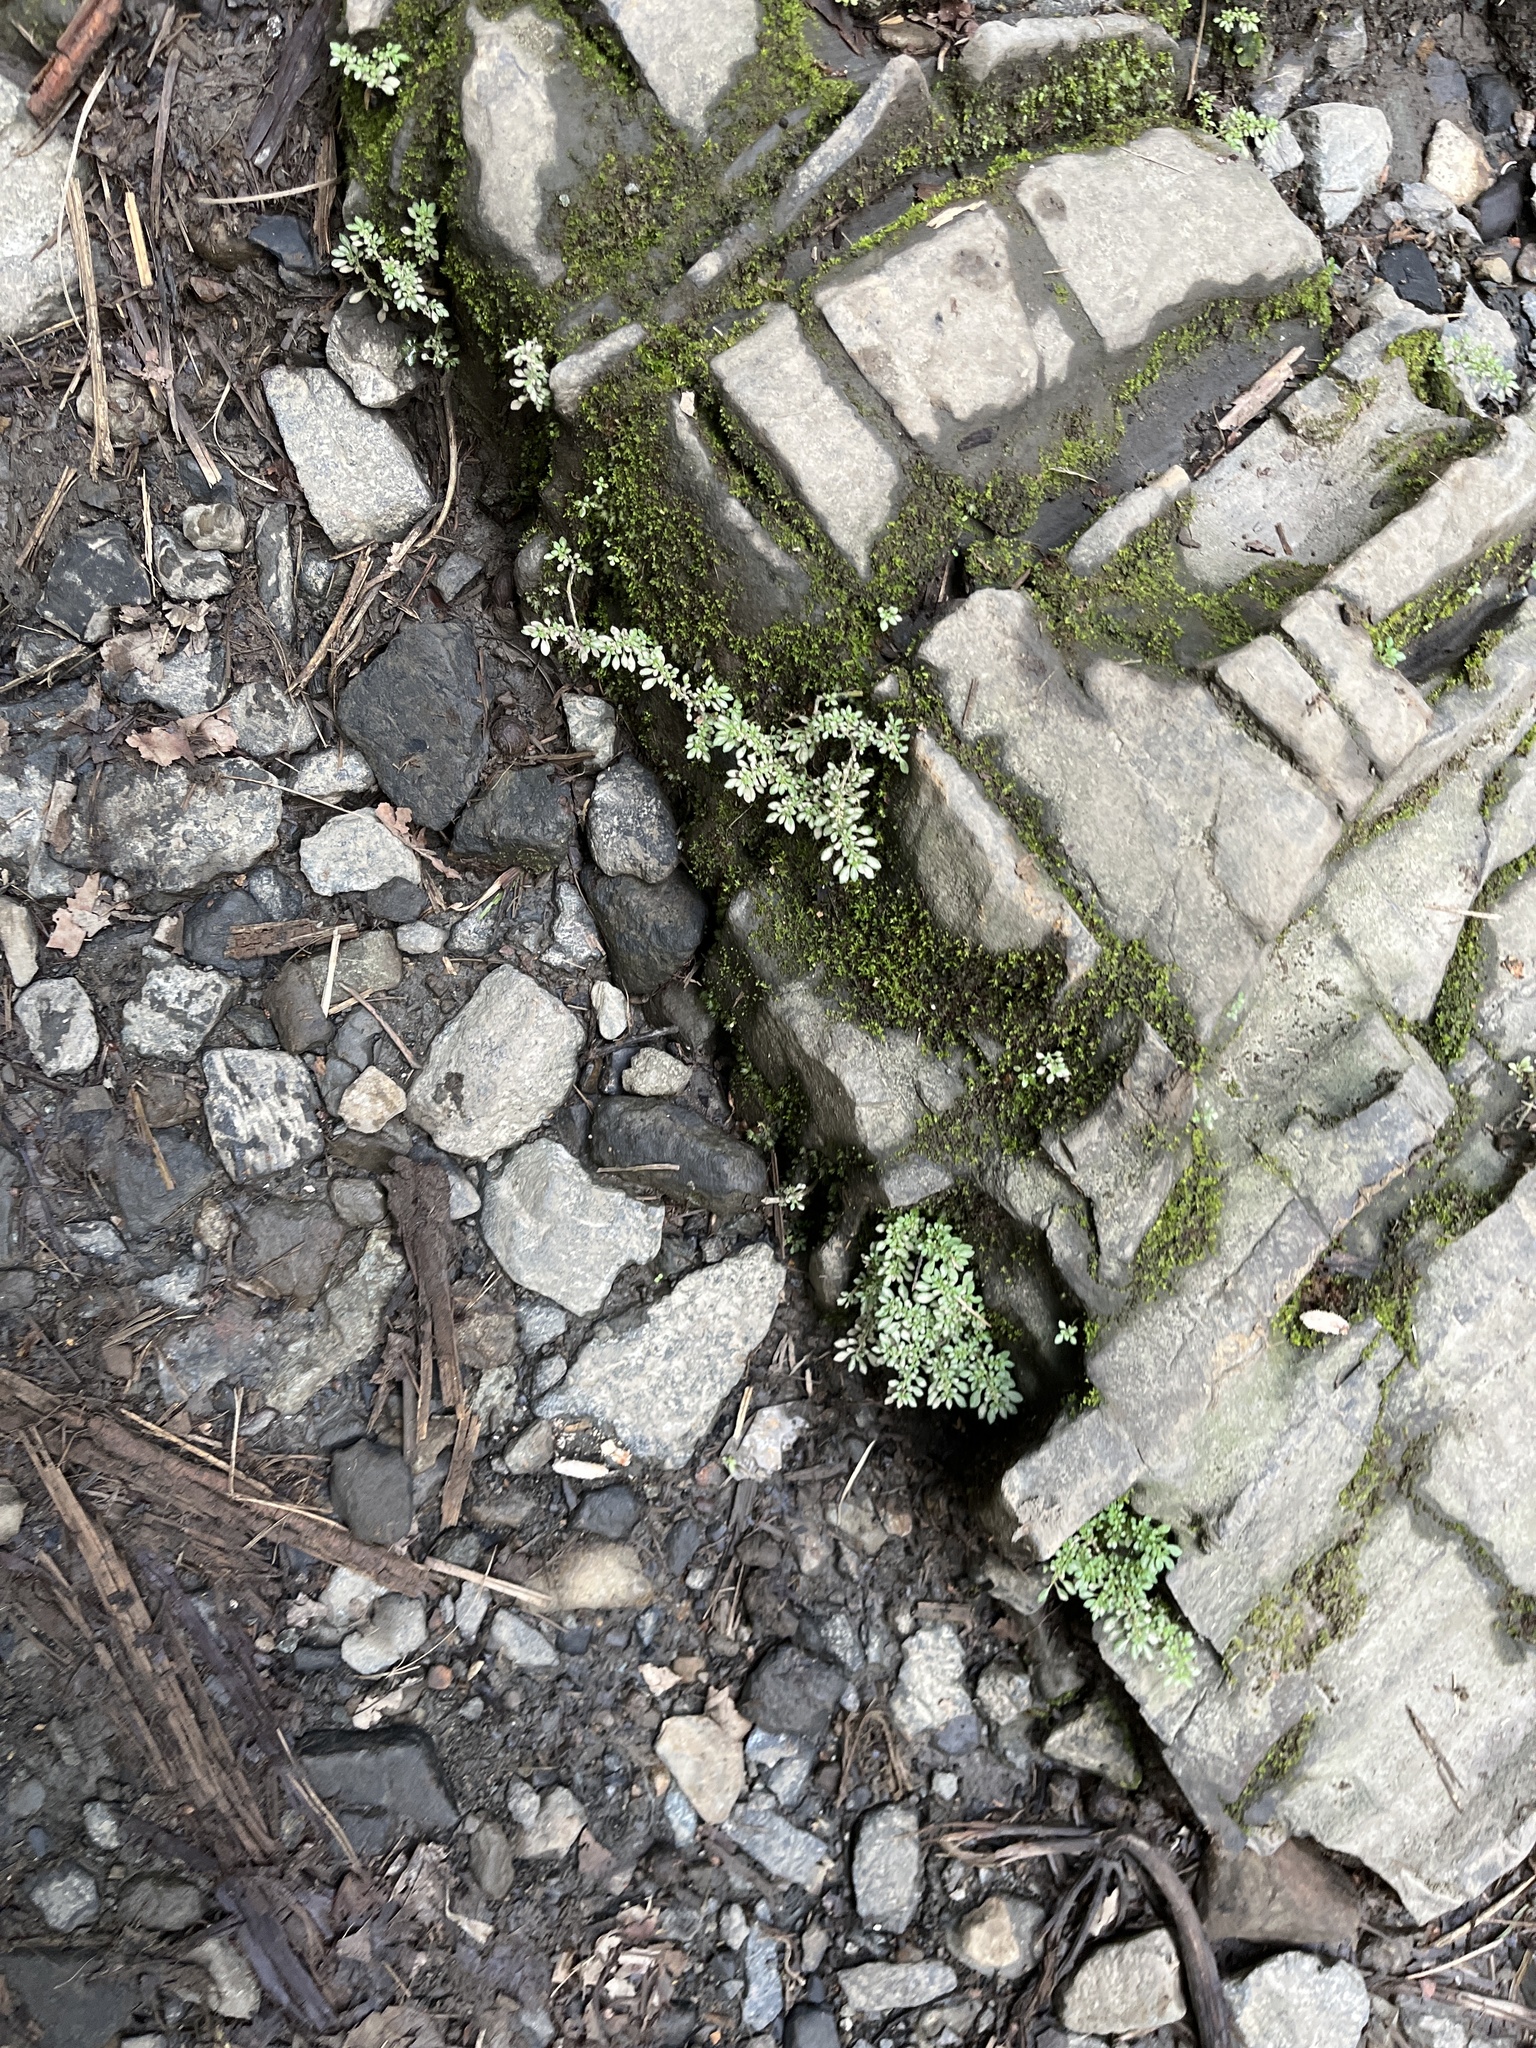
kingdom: Plantae
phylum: Tracheophyta
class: Magnoliopsida
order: Rosales
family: Urticaceae
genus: Pilea
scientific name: Pilea microphylla
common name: Artillery-plant
